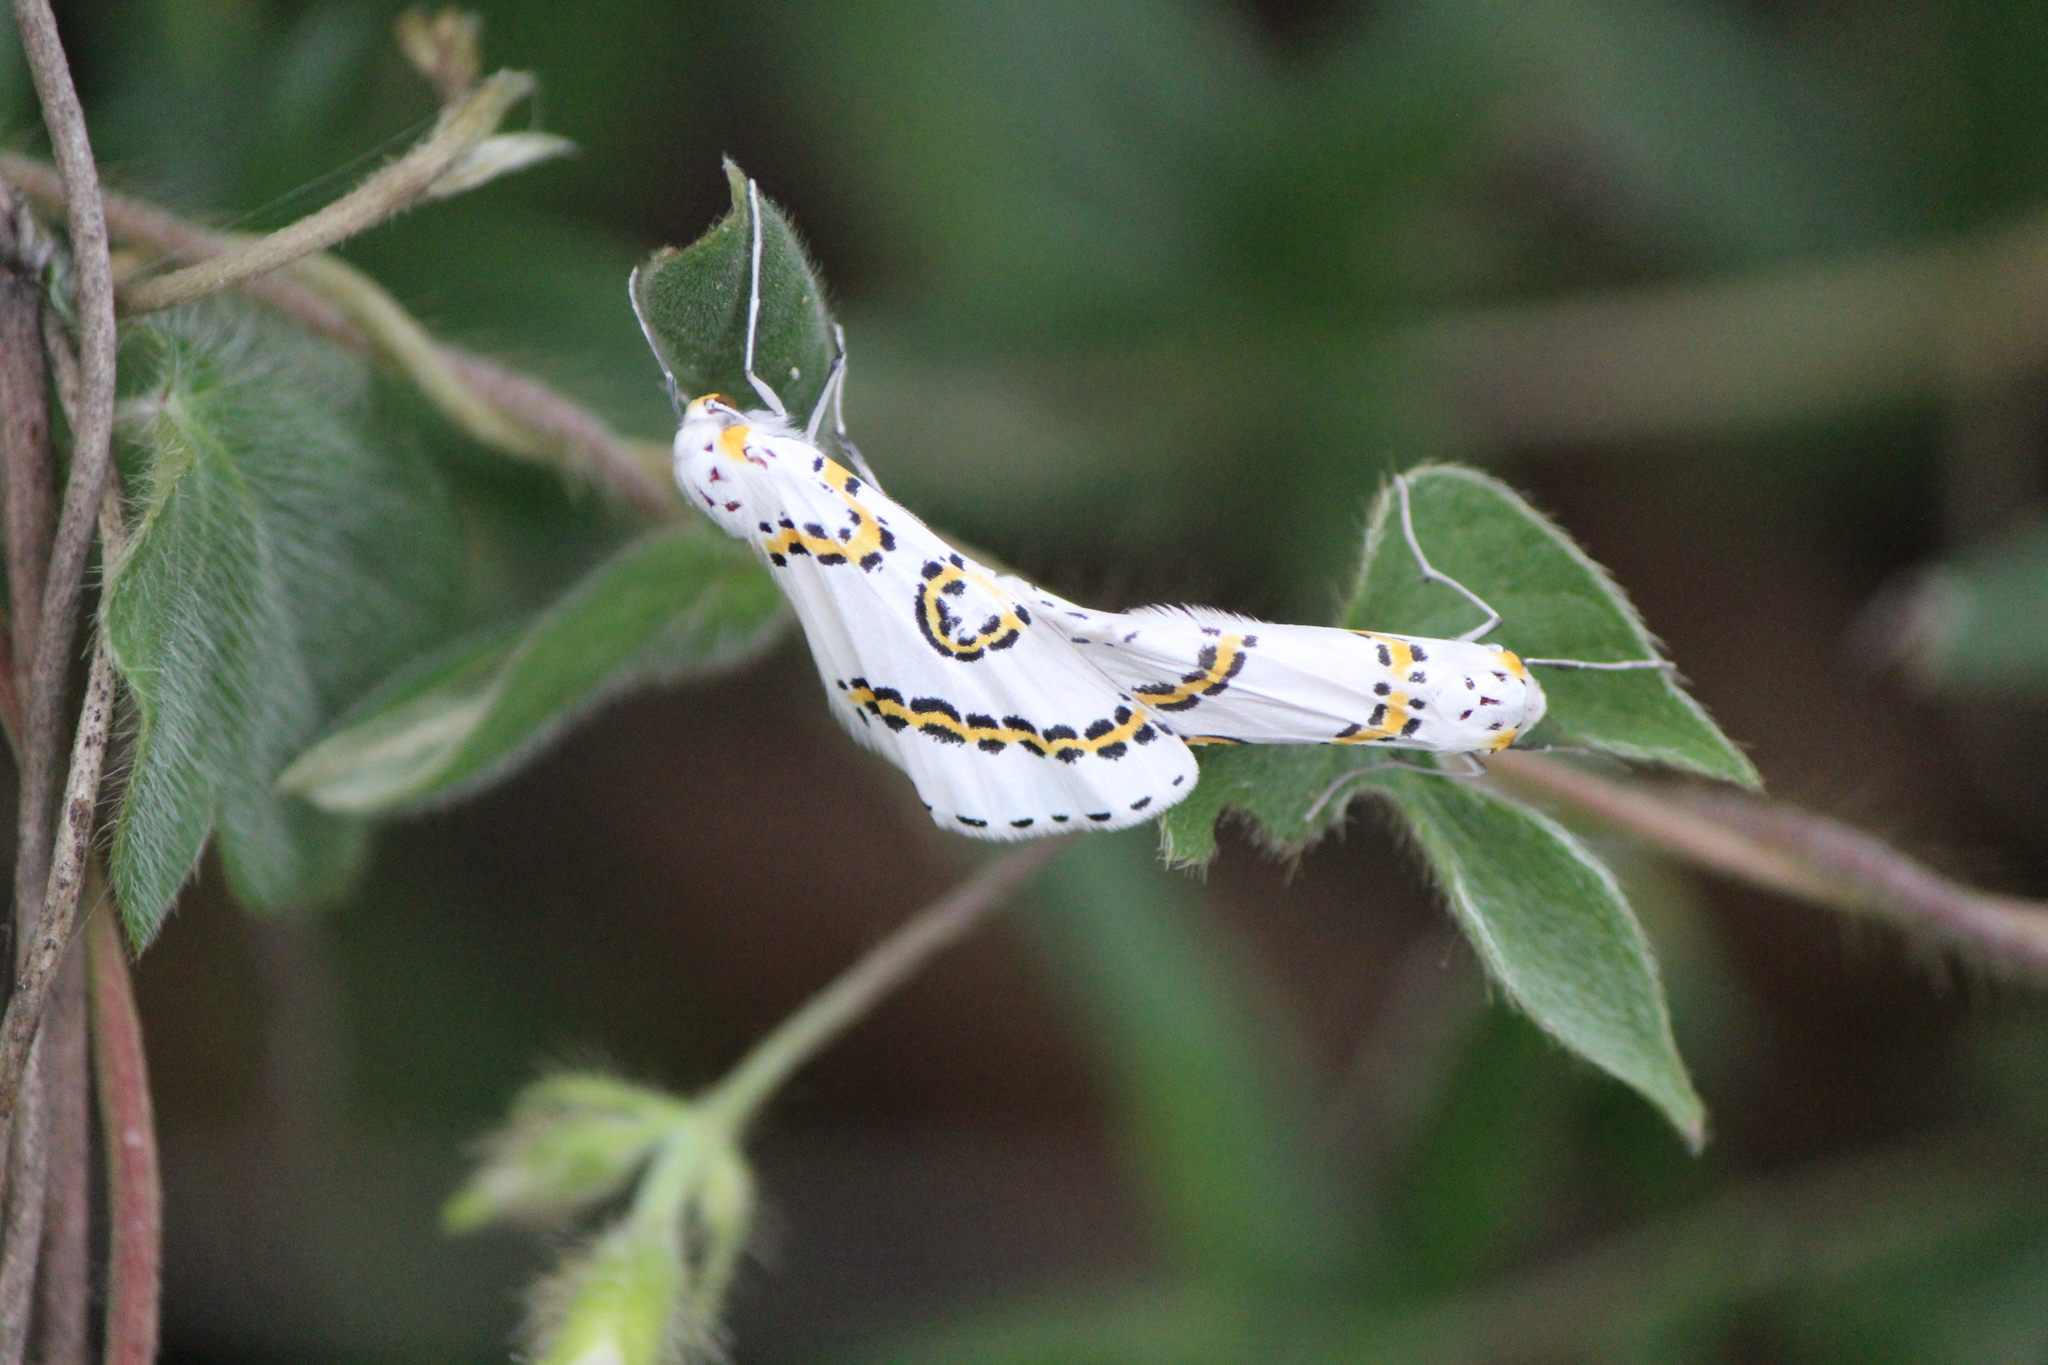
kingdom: Animalia
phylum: Arthropoda
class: Insecta
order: Lepidoptera
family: Geometridae
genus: Philtraea
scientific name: Philtraea mexicana
